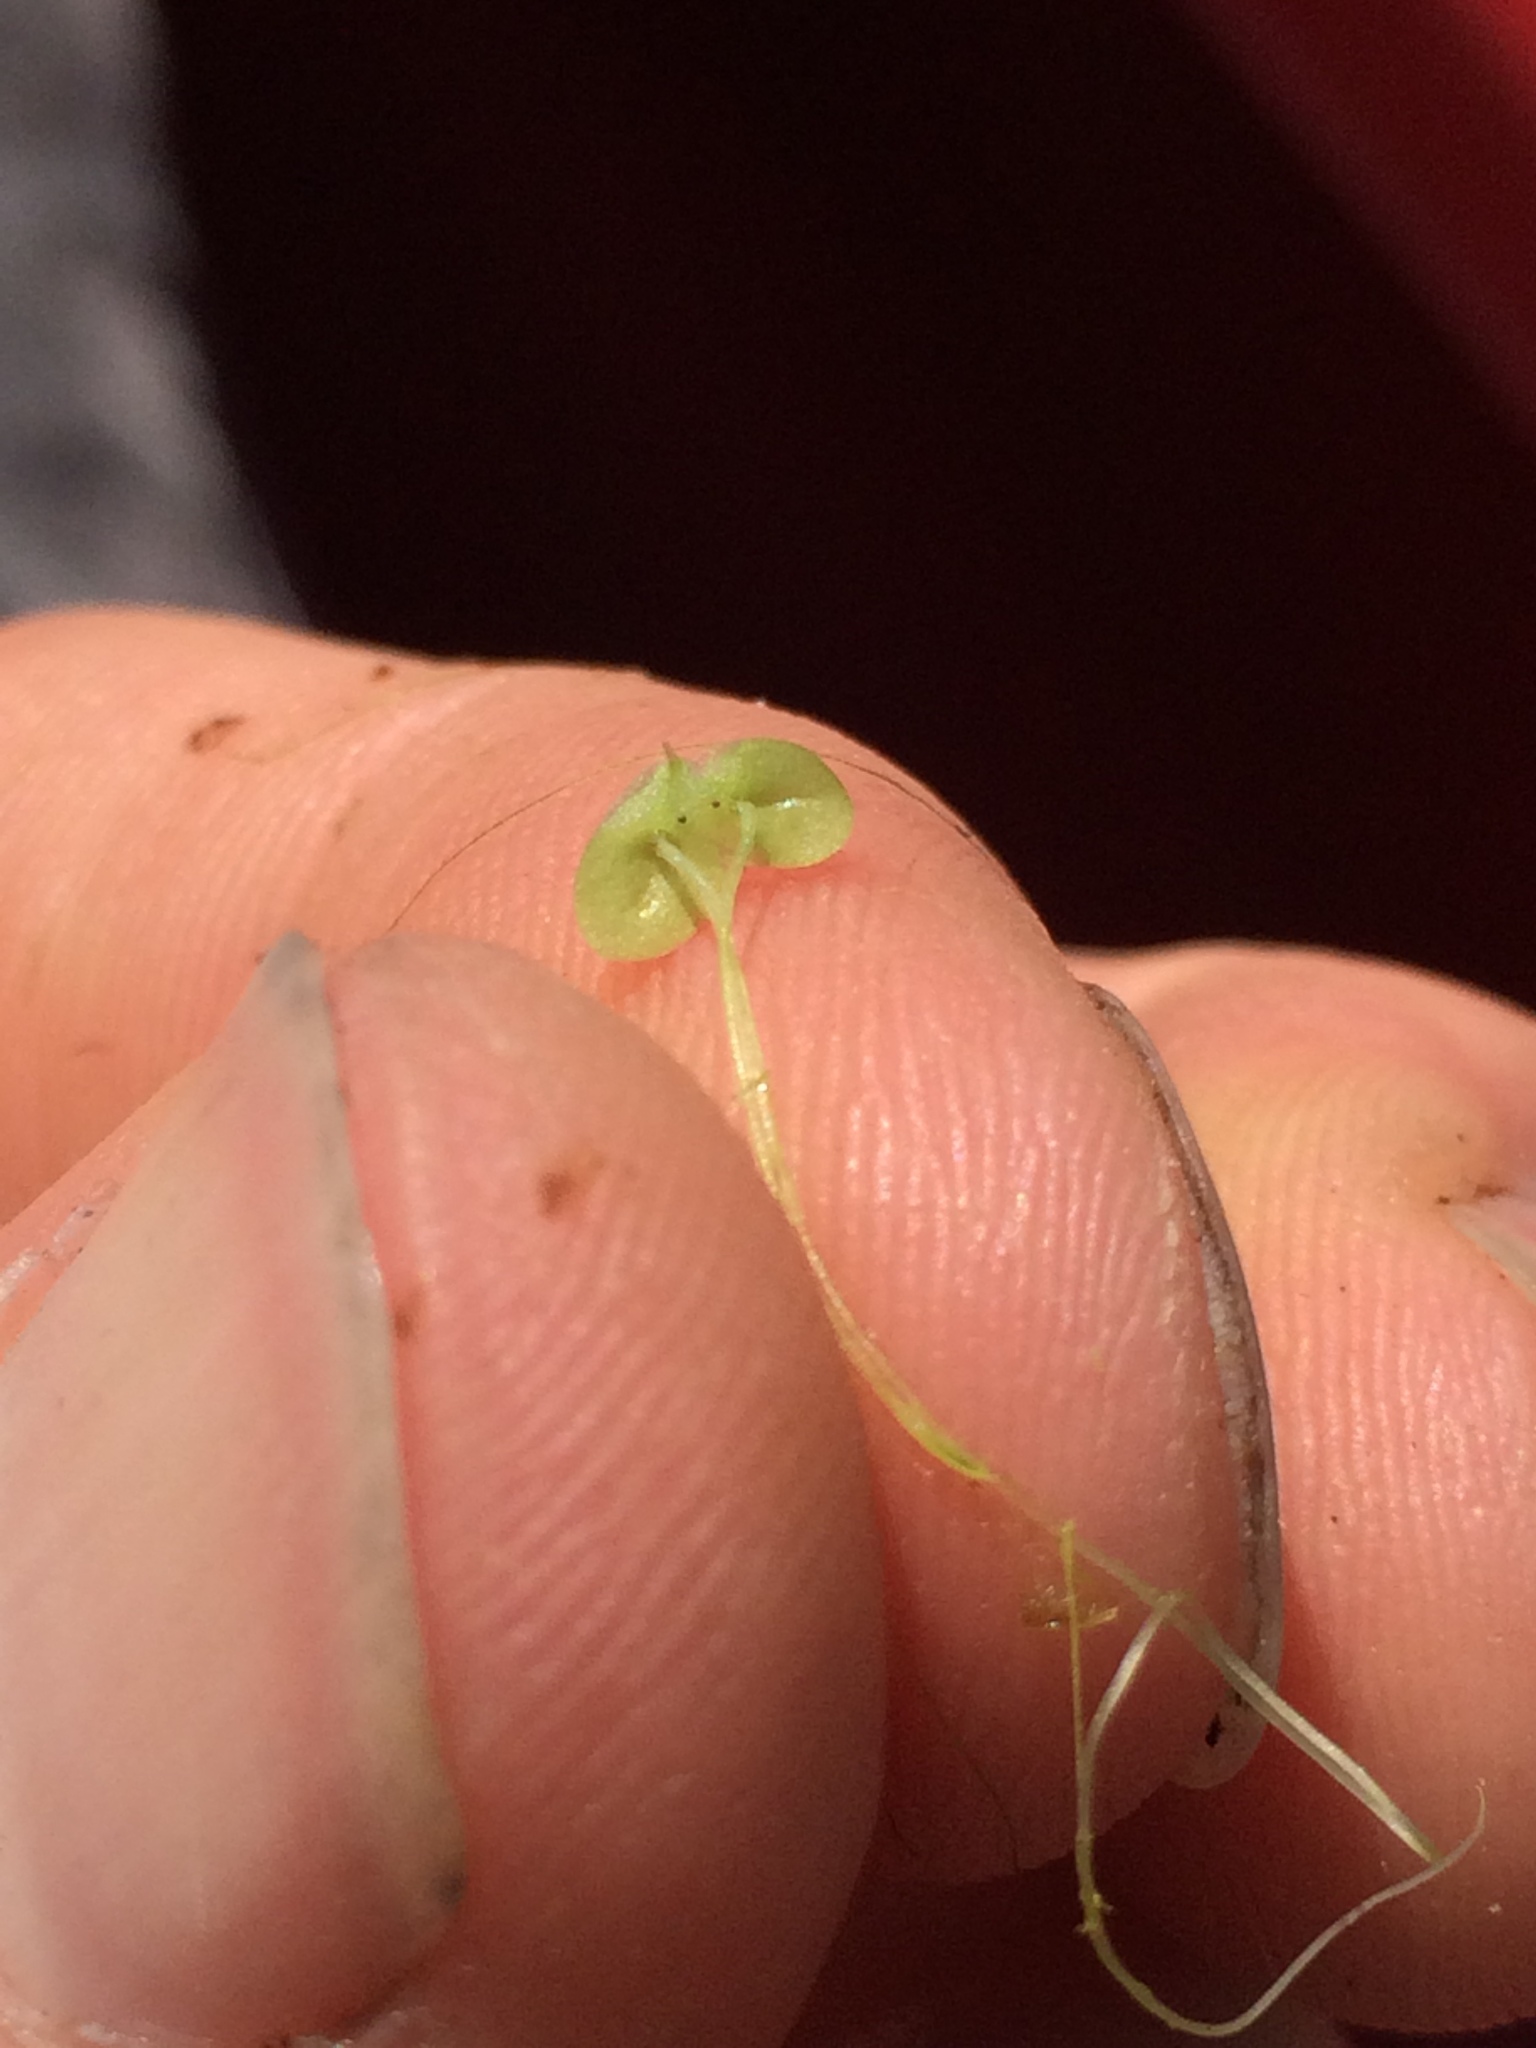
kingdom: Plantae
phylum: Tracheophyta
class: Liliopsida
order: Alismatales
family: Araceae
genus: Lemna
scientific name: Lemna minor
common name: Common duckweed
